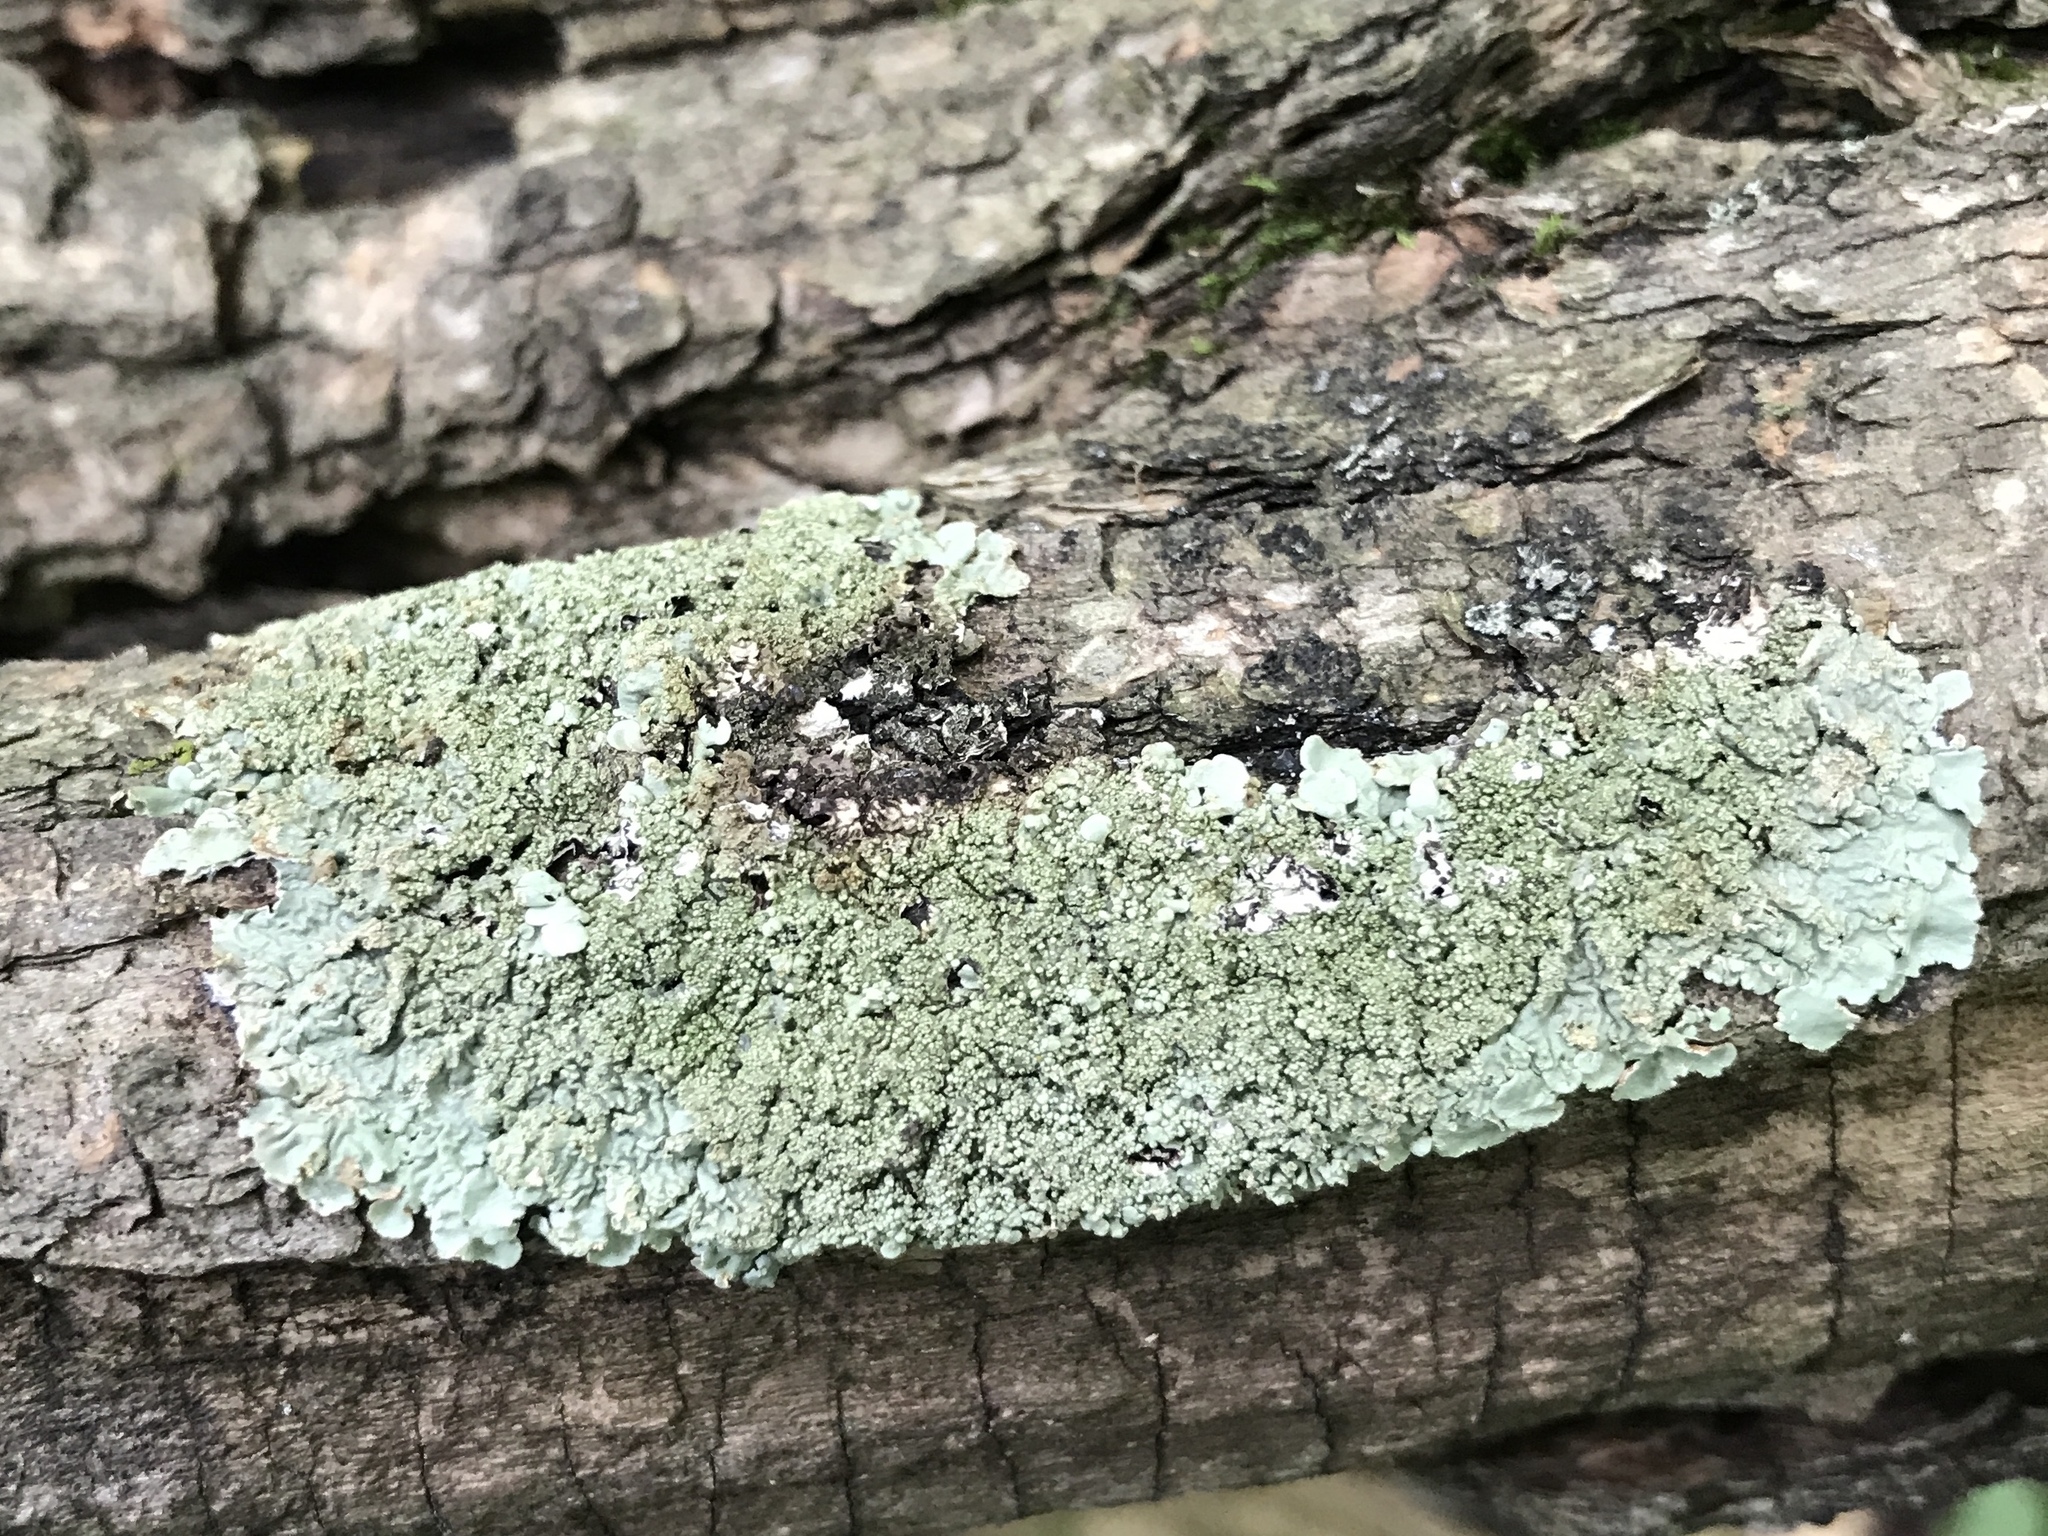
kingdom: Fungi
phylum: Ascomycota
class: Lecanoromycetes
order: Lecanorales
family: Parmeliaceae
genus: Flavoparmelia
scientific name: Flavoparmelia caperata
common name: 40-mile per hour lichen
